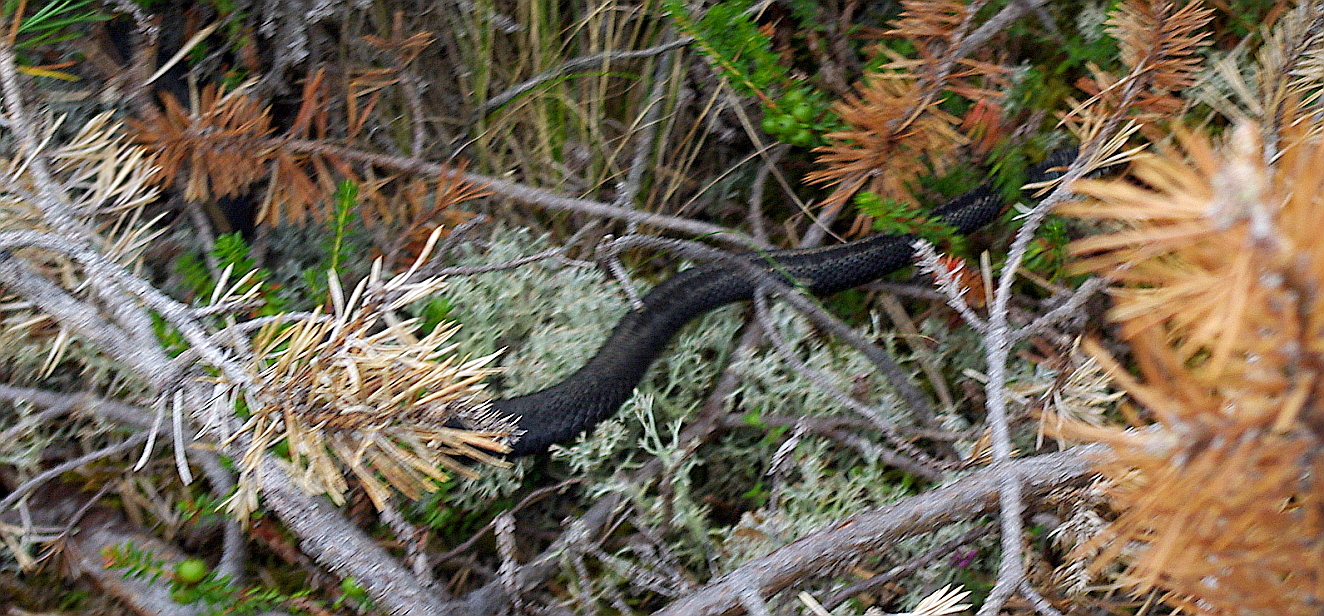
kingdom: Animalia
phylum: Chordata
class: Squamata
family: Viperidae
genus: Vipera
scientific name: Vipera berus
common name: Adder
